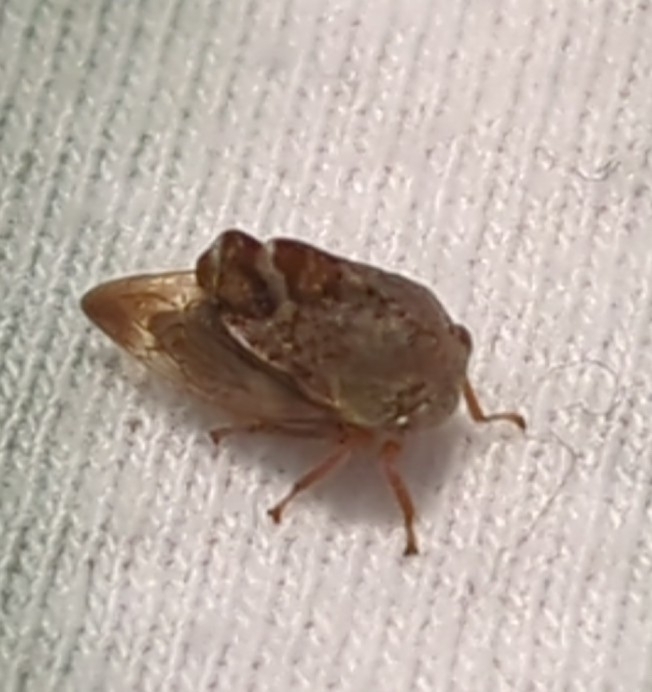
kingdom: Animalia
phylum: Arthropoda
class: Insecta
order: Hemiptera
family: Membracidae
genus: Cyrtolobus
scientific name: Cyrtolobus tuberosa
